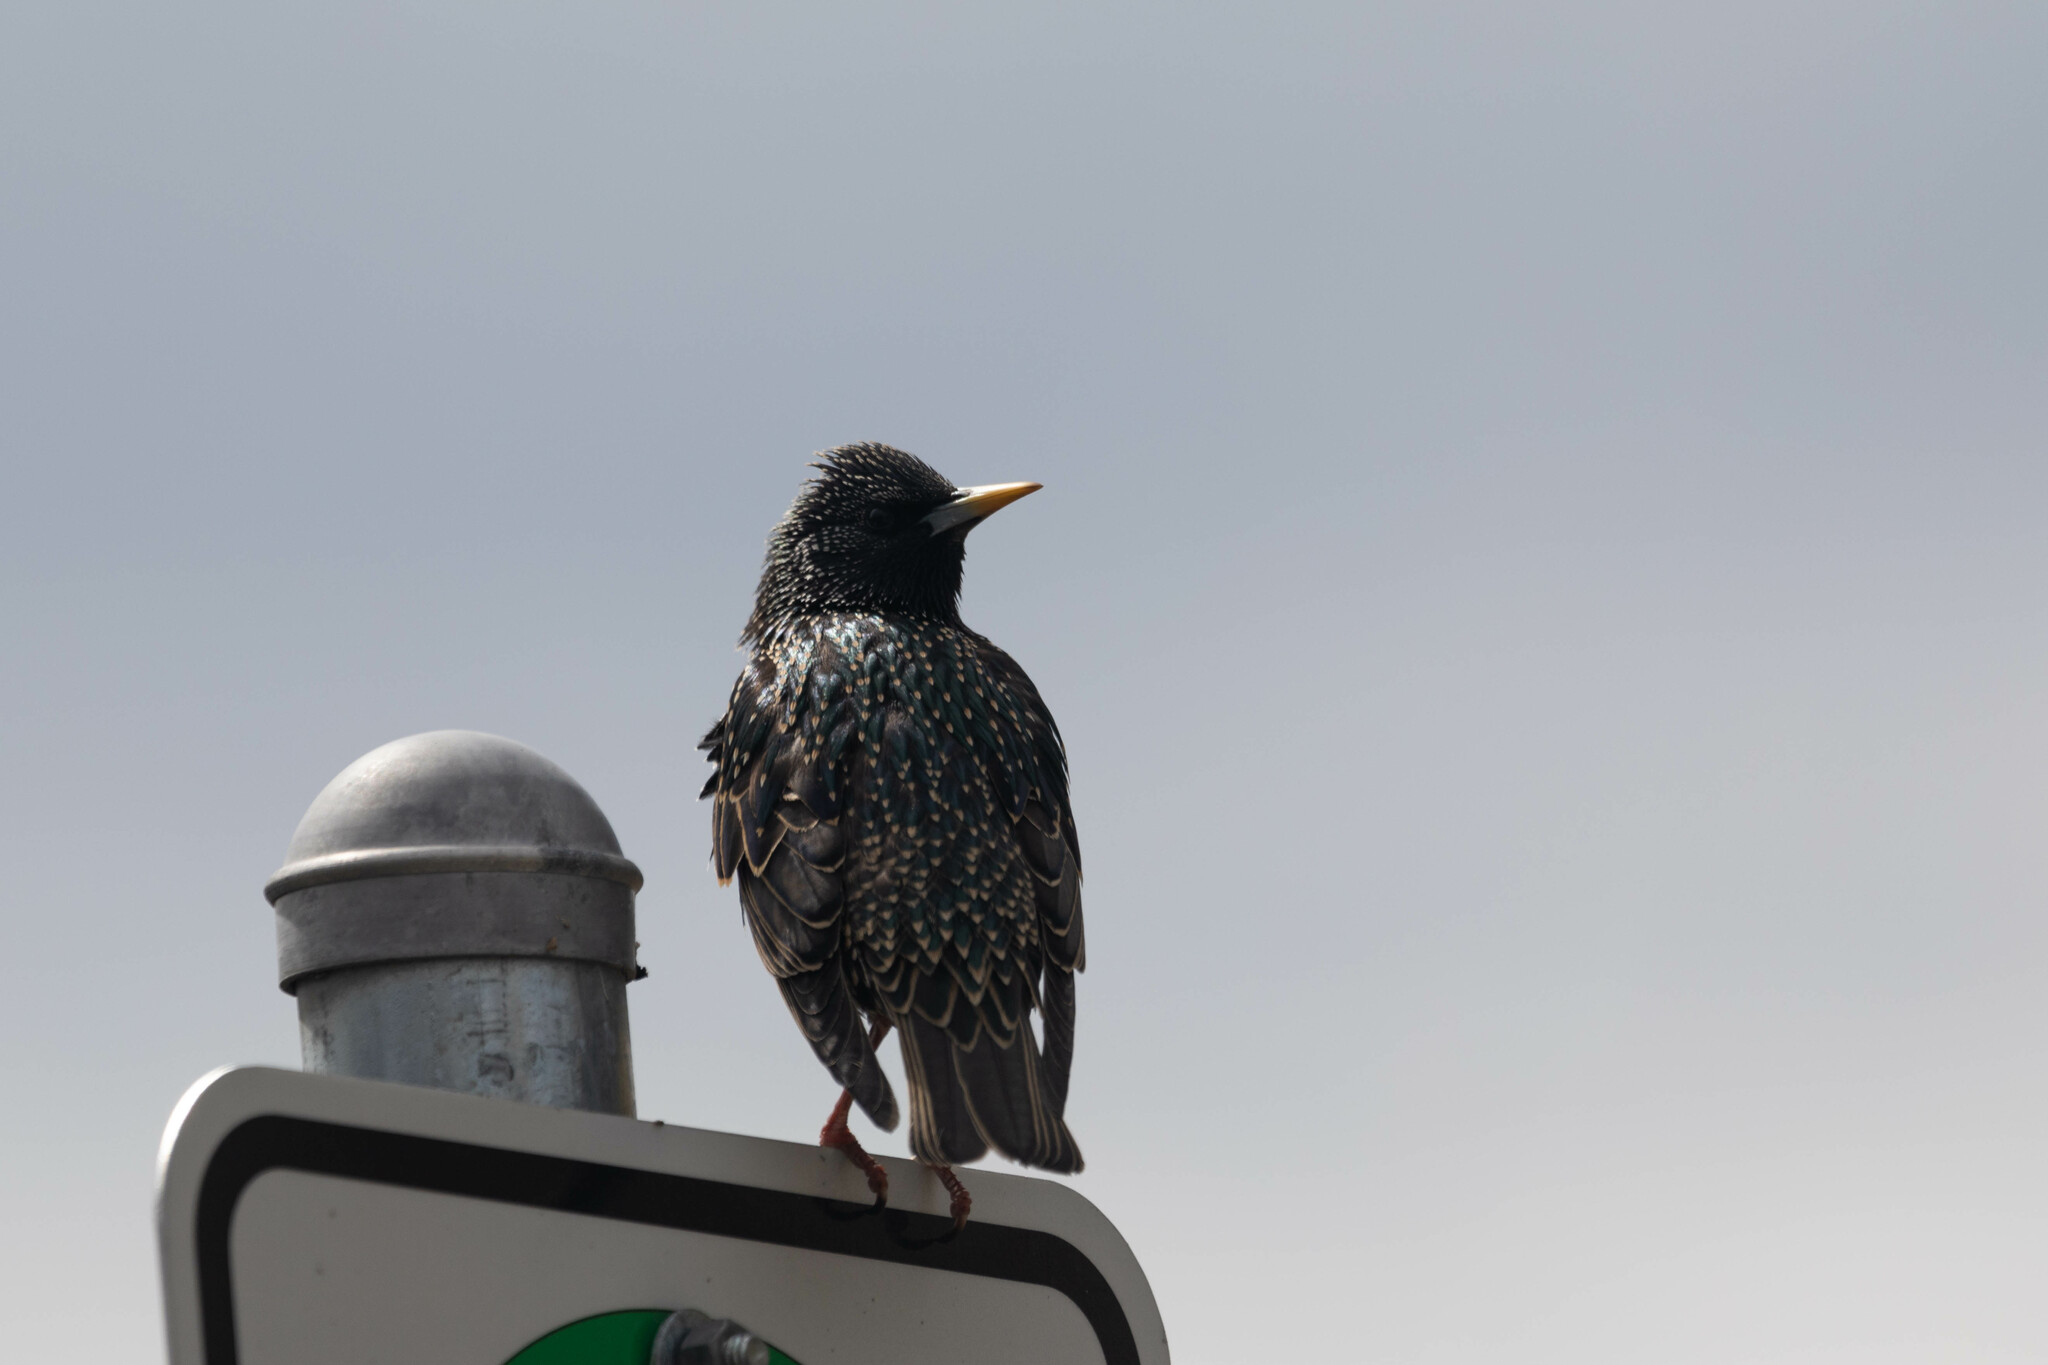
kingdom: Animalia
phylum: Chordata
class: Aves
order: Passeriformes
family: Sturnidae
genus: Sturnus
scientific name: Sturnus vulgaris
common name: Common starling
